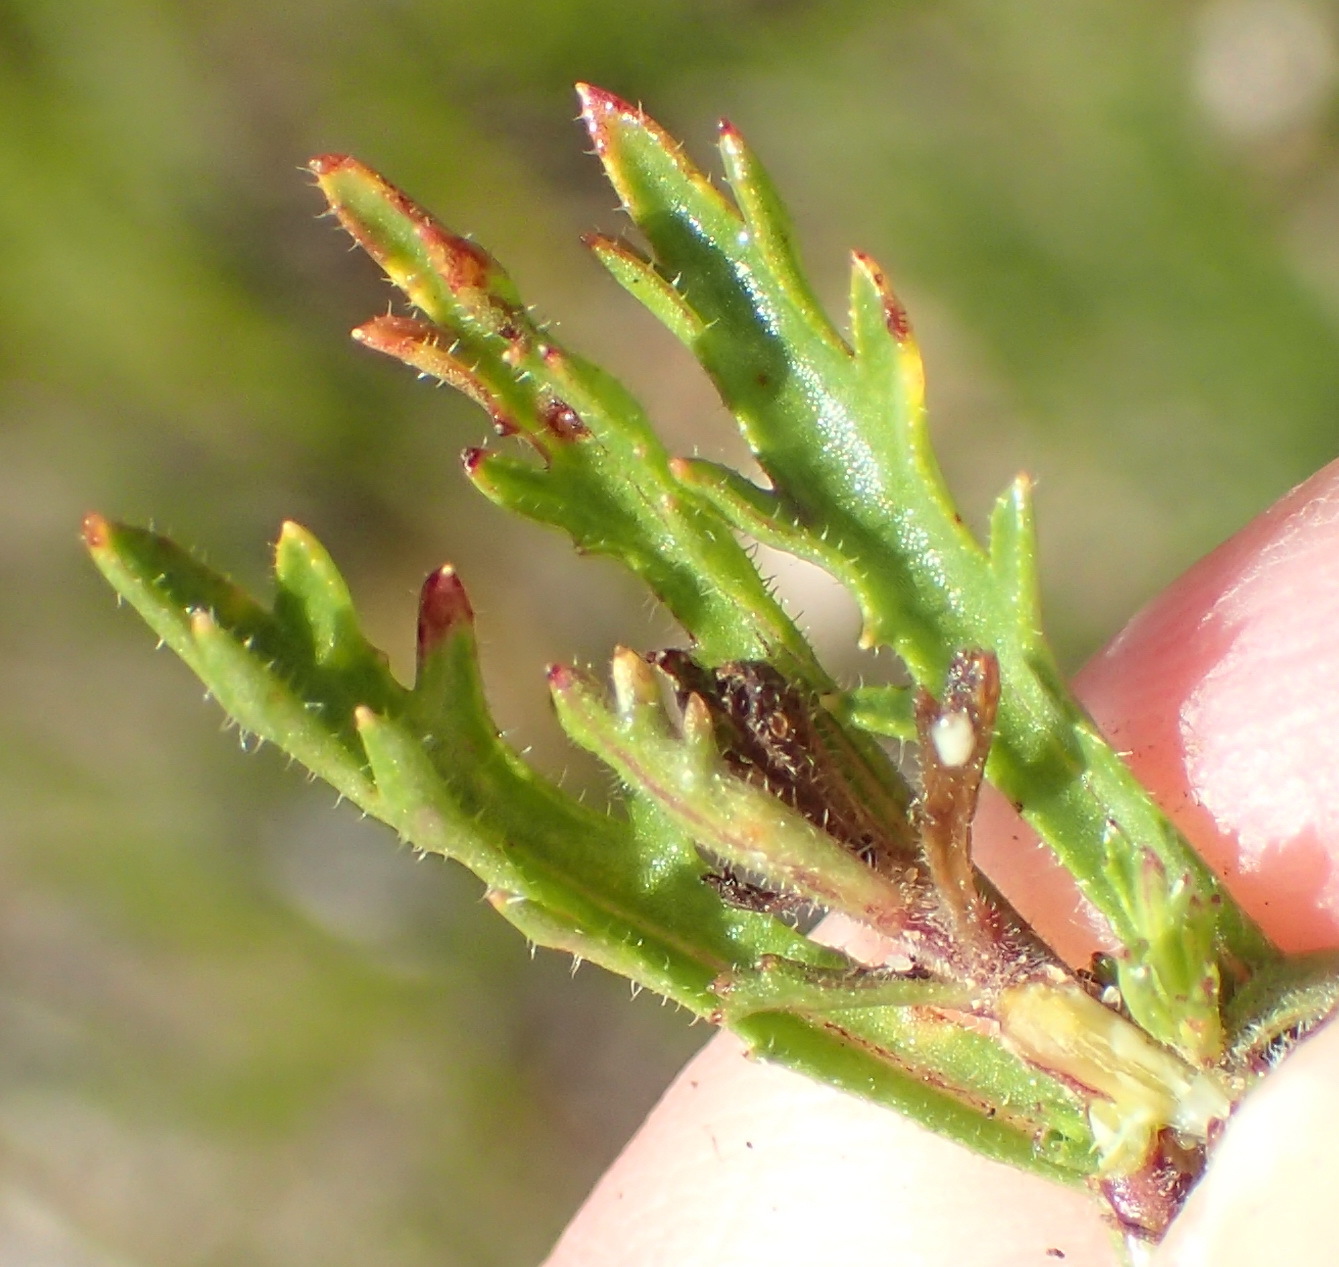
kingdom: Plantae
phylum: Tracheophyta
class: Magnoliopsida
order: Asterales
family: Campanulaceae
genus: Lobelia
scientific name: Lobelia tomentosa
